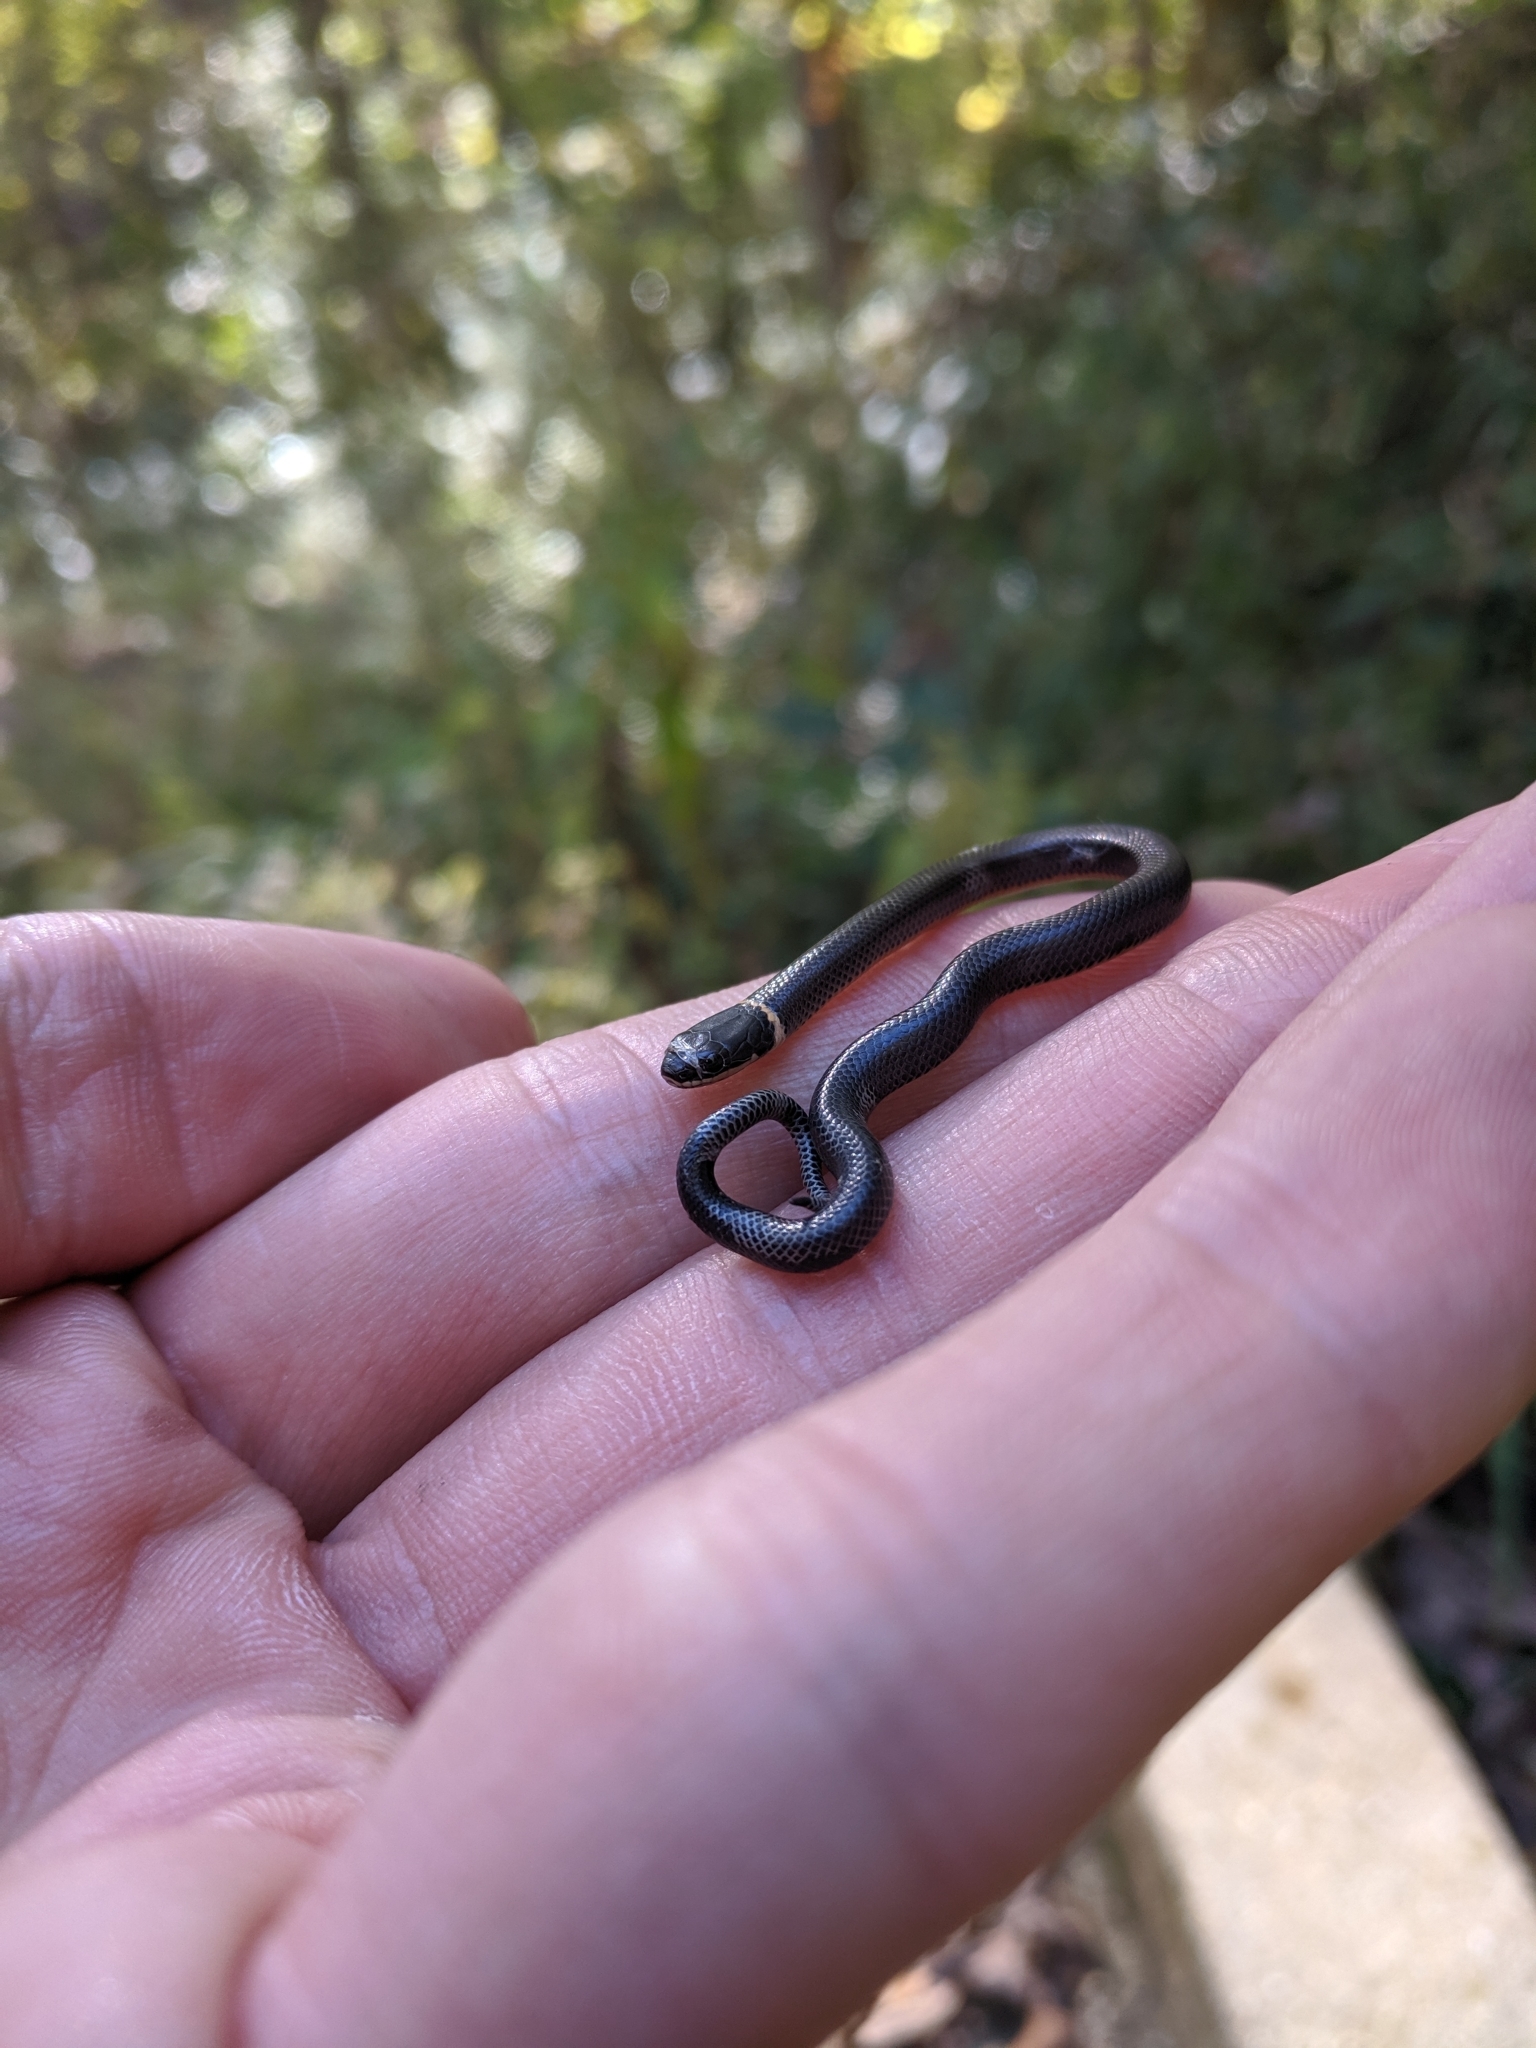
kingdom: Animalia
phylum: Chordata
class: Squamata
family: Colubridae
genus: Diadophis
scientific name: Diadophis punctatus
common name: Ringneck snake
